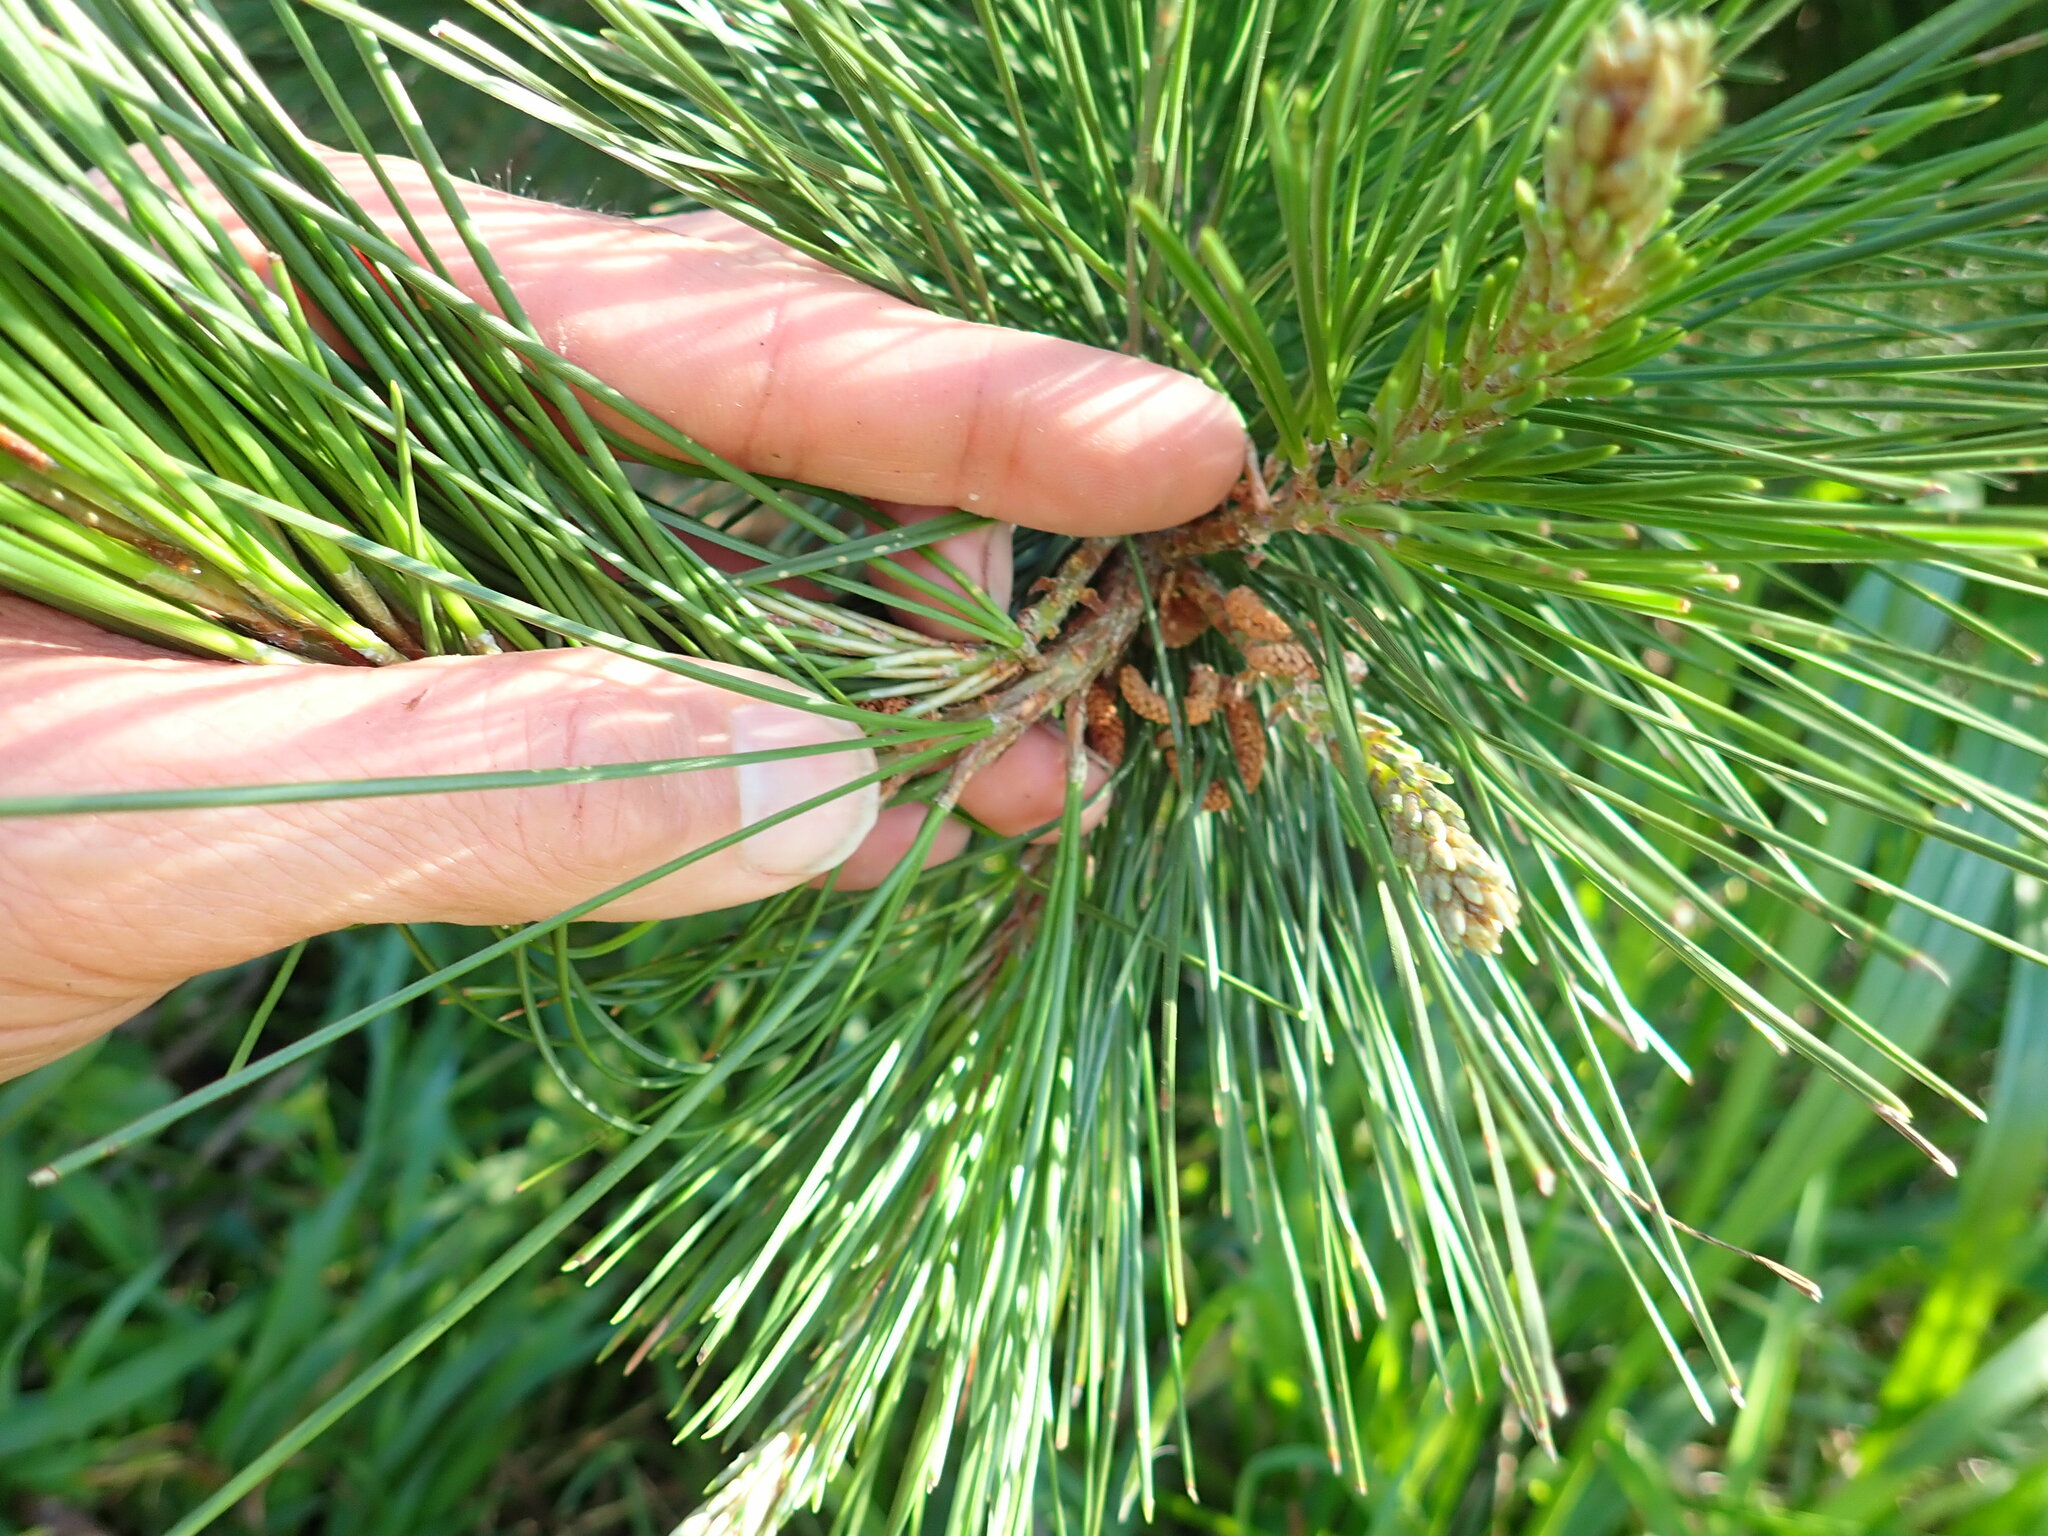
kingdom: Plantae
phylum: Tracheophyta
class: Pinopsida
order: Pinales
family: Pinaceae
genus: Pinus
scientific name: Pinus radiata
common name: Monterey pine
